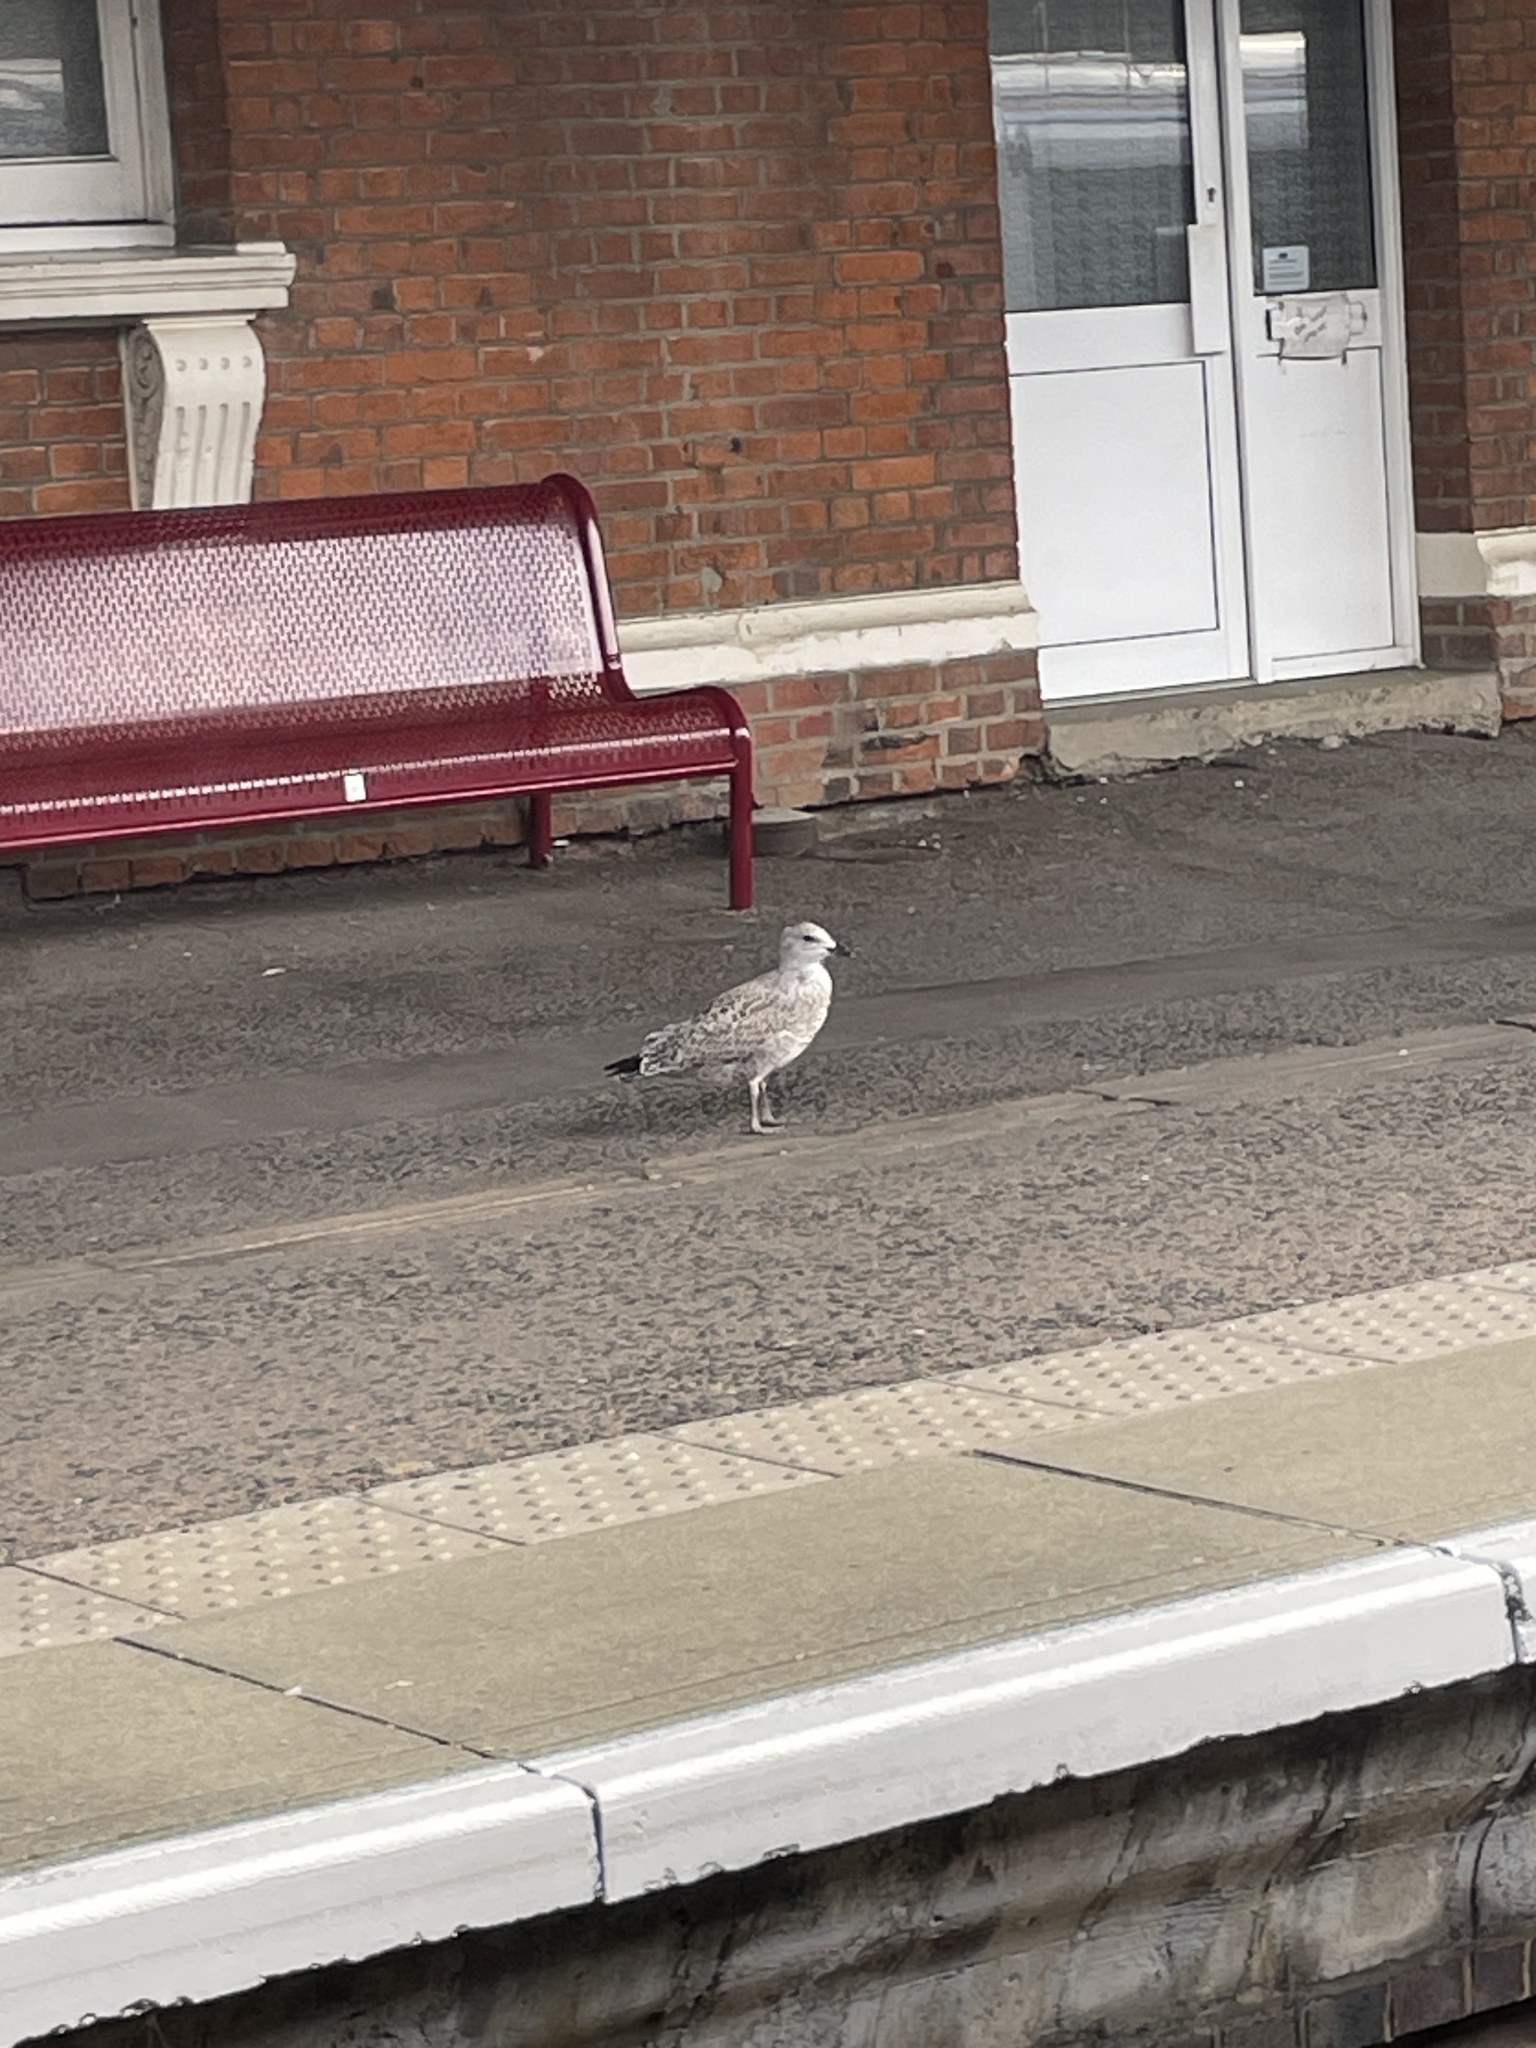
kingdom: Animalia
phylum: Chordata
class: Aves
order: Charadriiformes
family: Laridae
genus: Larus
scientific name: Larus argentatus
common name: Herring gull
